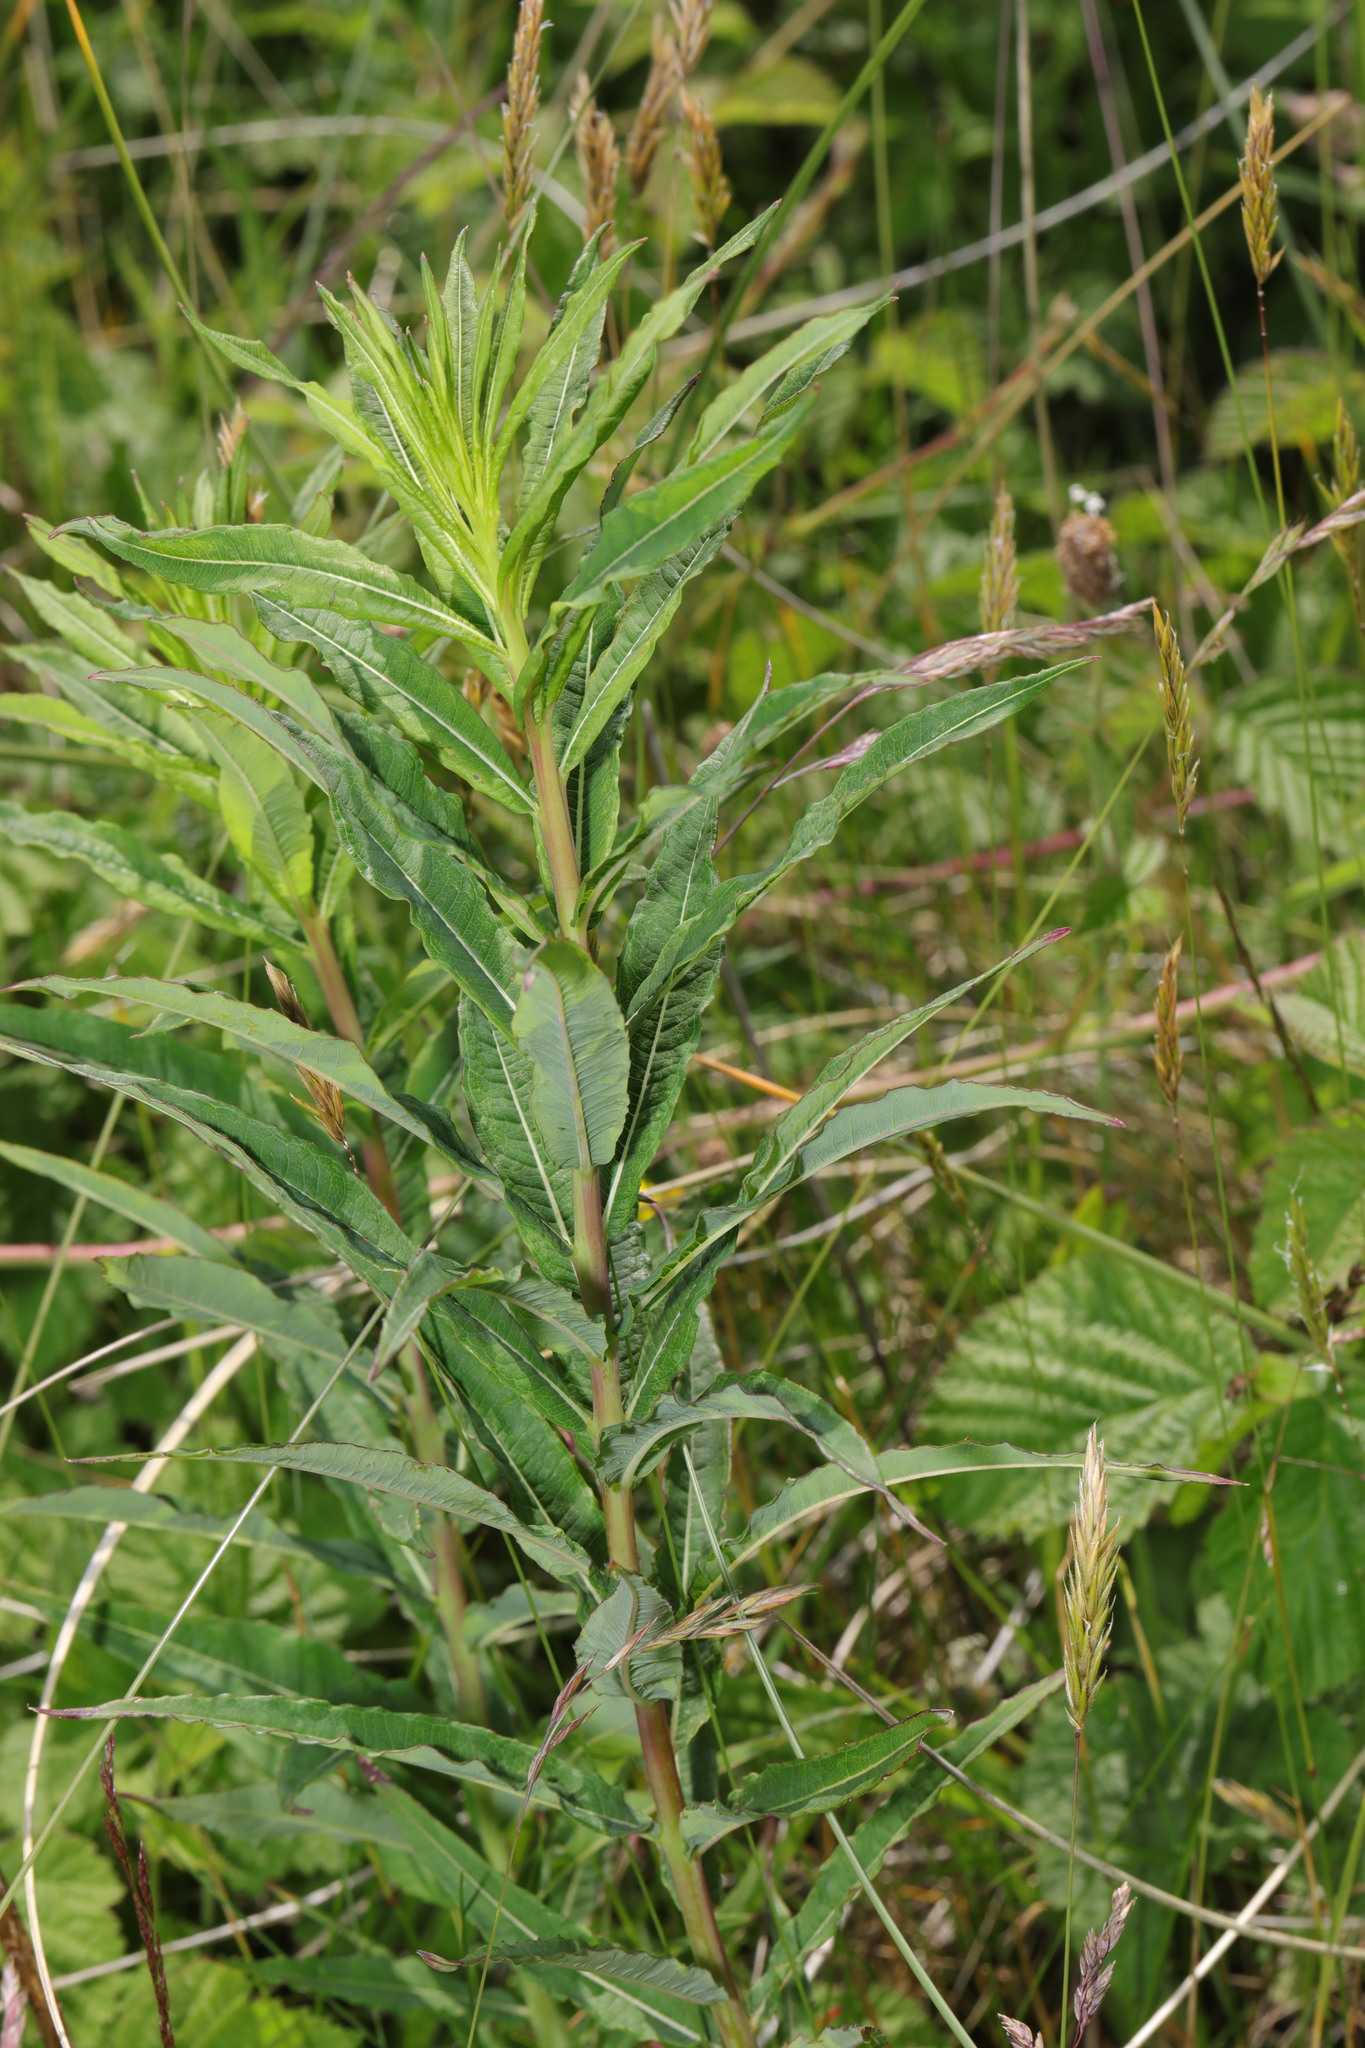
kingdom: Plantae
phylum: Tracheophyta
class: Magnoliopsida
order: Myrtales
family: Onagraceae
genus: Chamaenerion
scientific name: Chamaenerion angustifolium
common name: Fireweed
